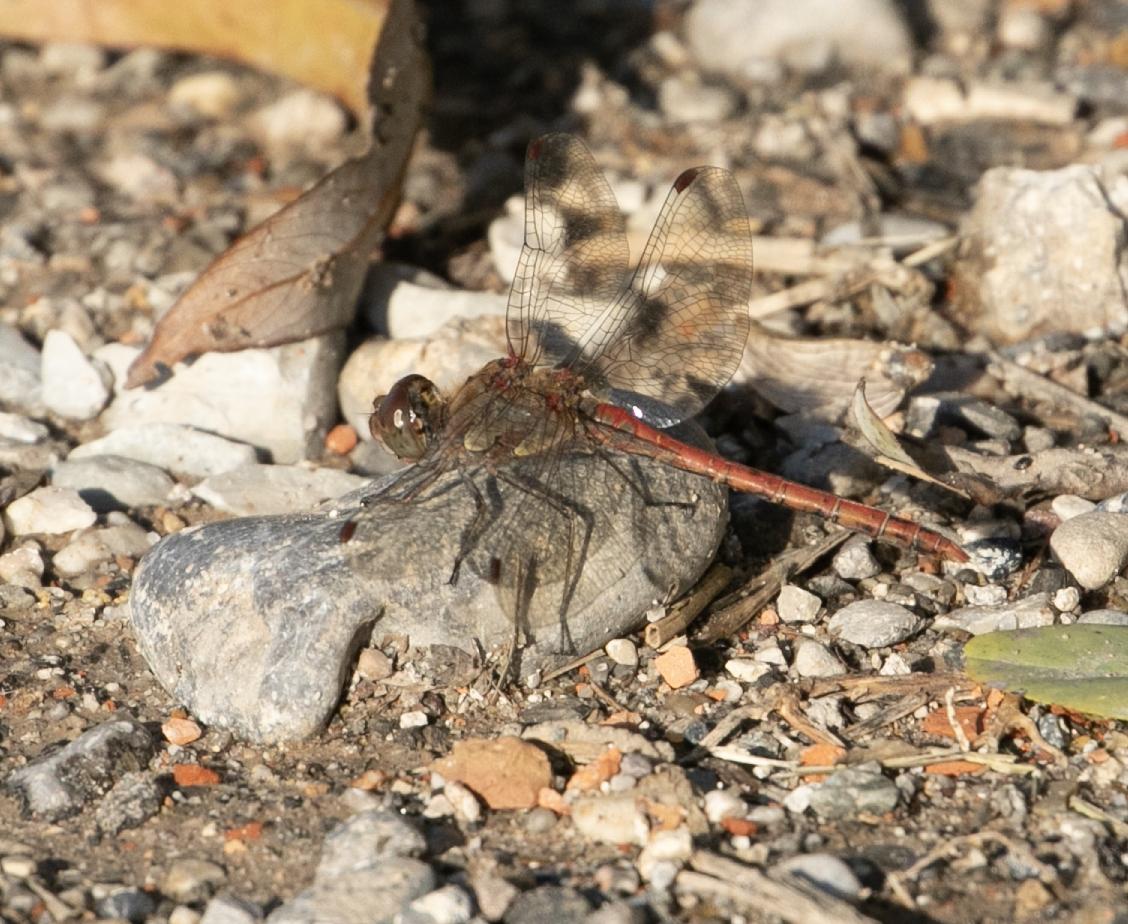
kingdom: Animalia
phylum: Arthropoda
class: Insecta
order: Odonata
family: Libellulidae
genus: Sympetrum
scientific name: Sympetrum striolatum
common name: Common darter
